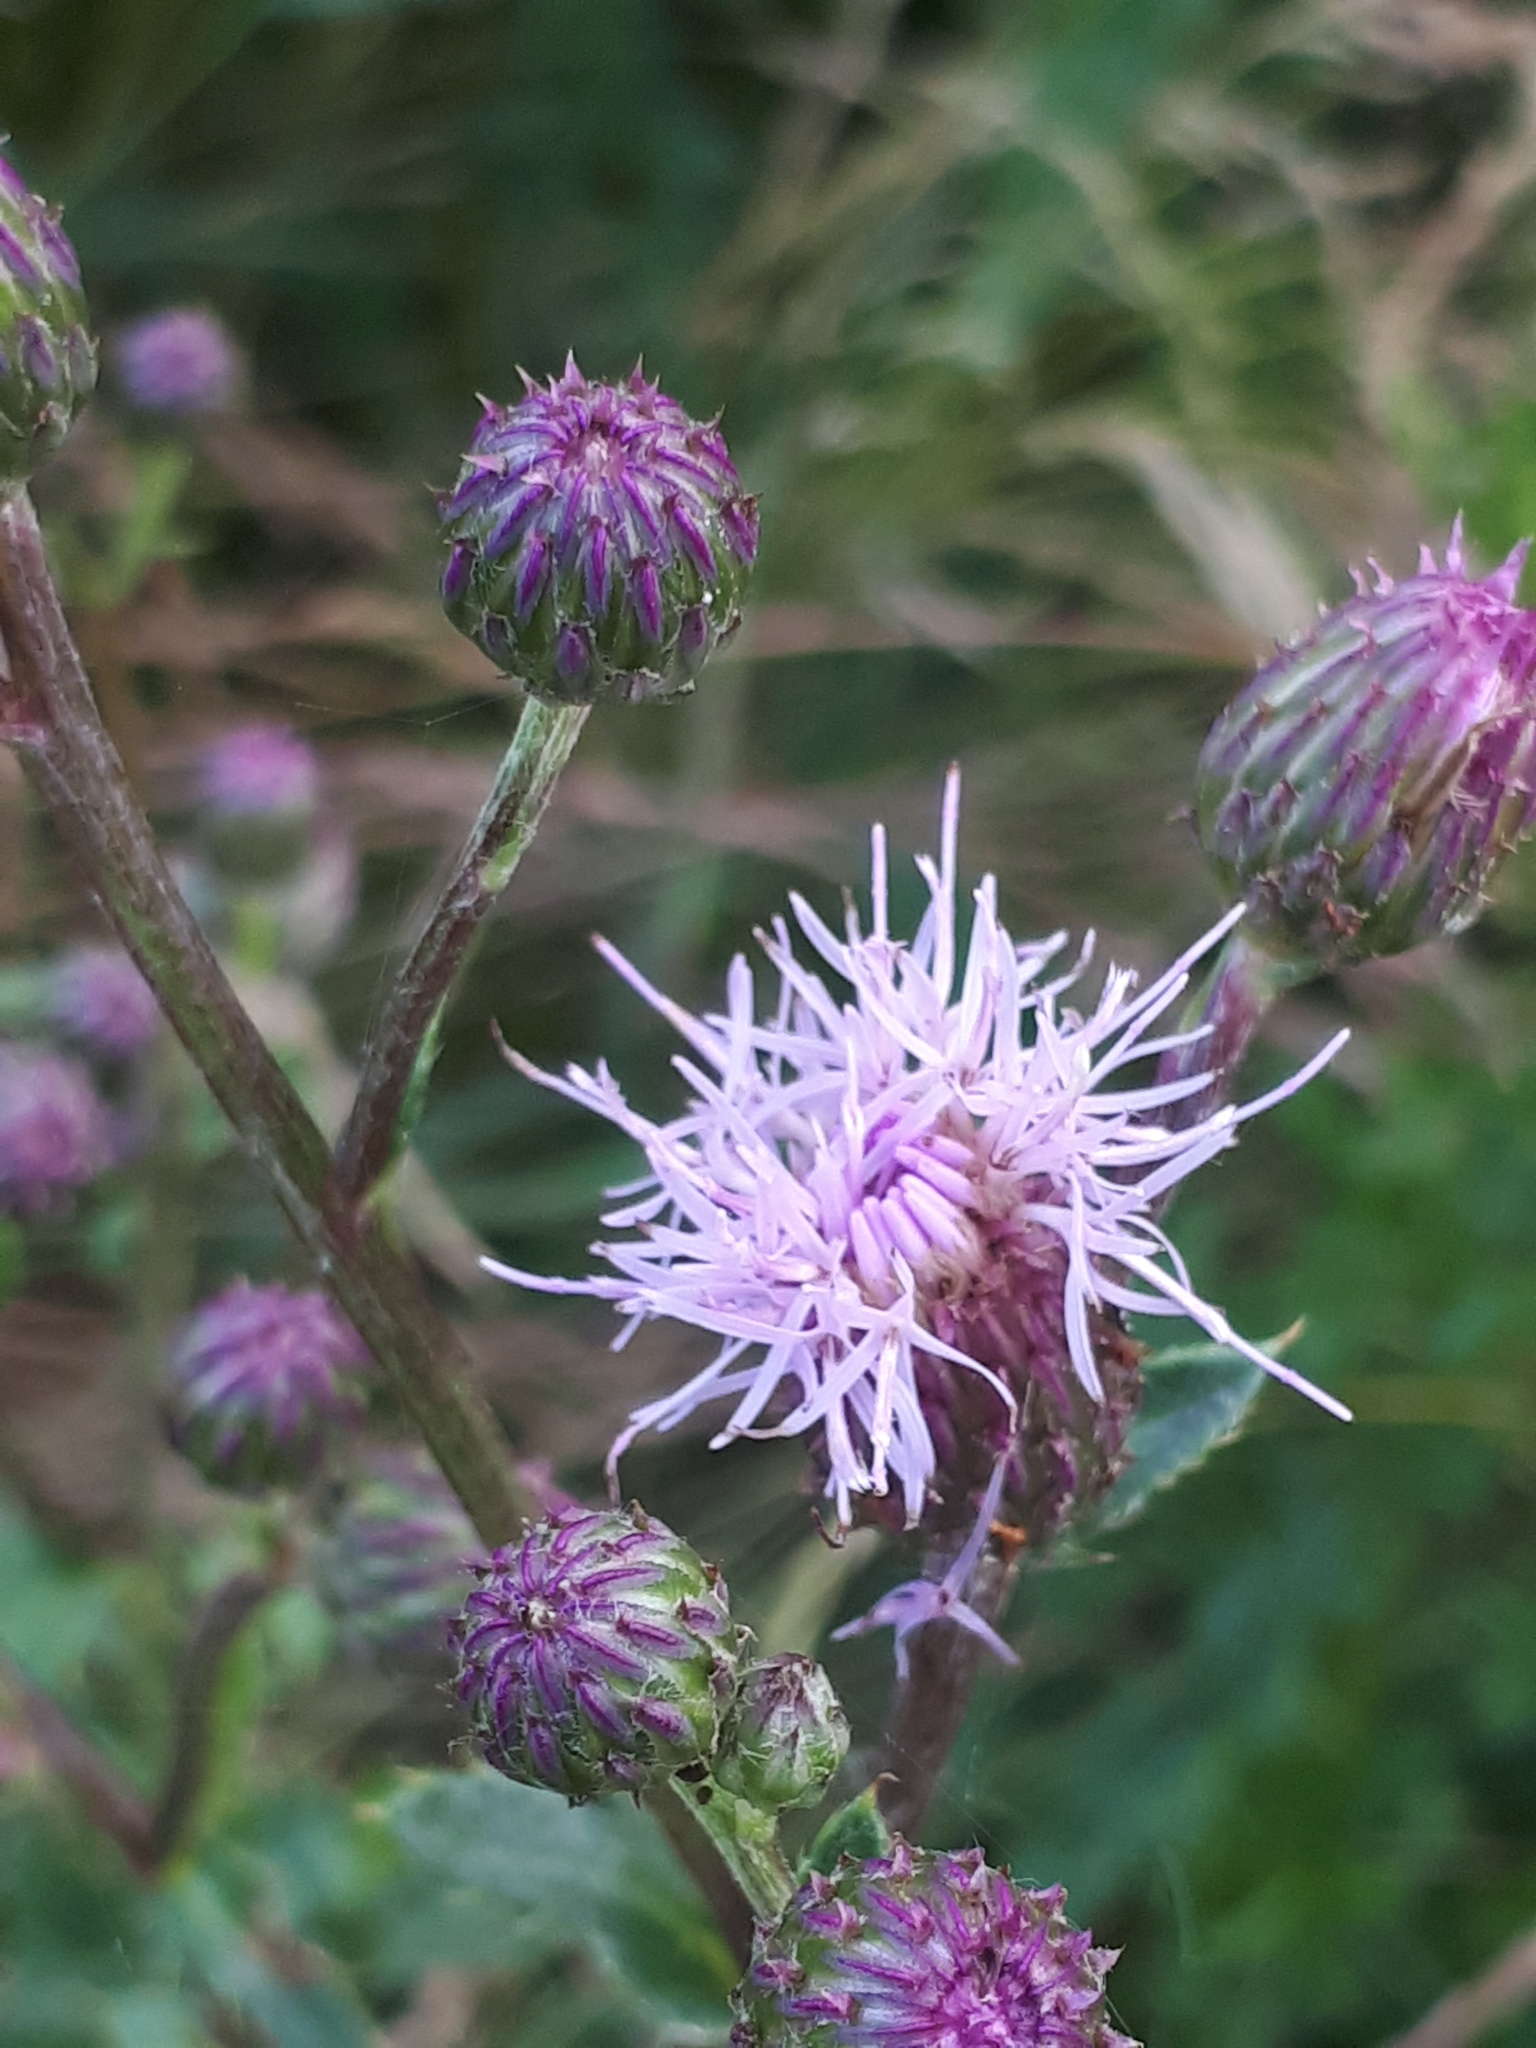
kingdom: Plantae
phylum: Tracheophyta
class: Magnoliopsida
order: Asterales
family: Asteraceae
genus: Cirsium
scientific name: Cirsium arvense
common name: Creeping thistle
